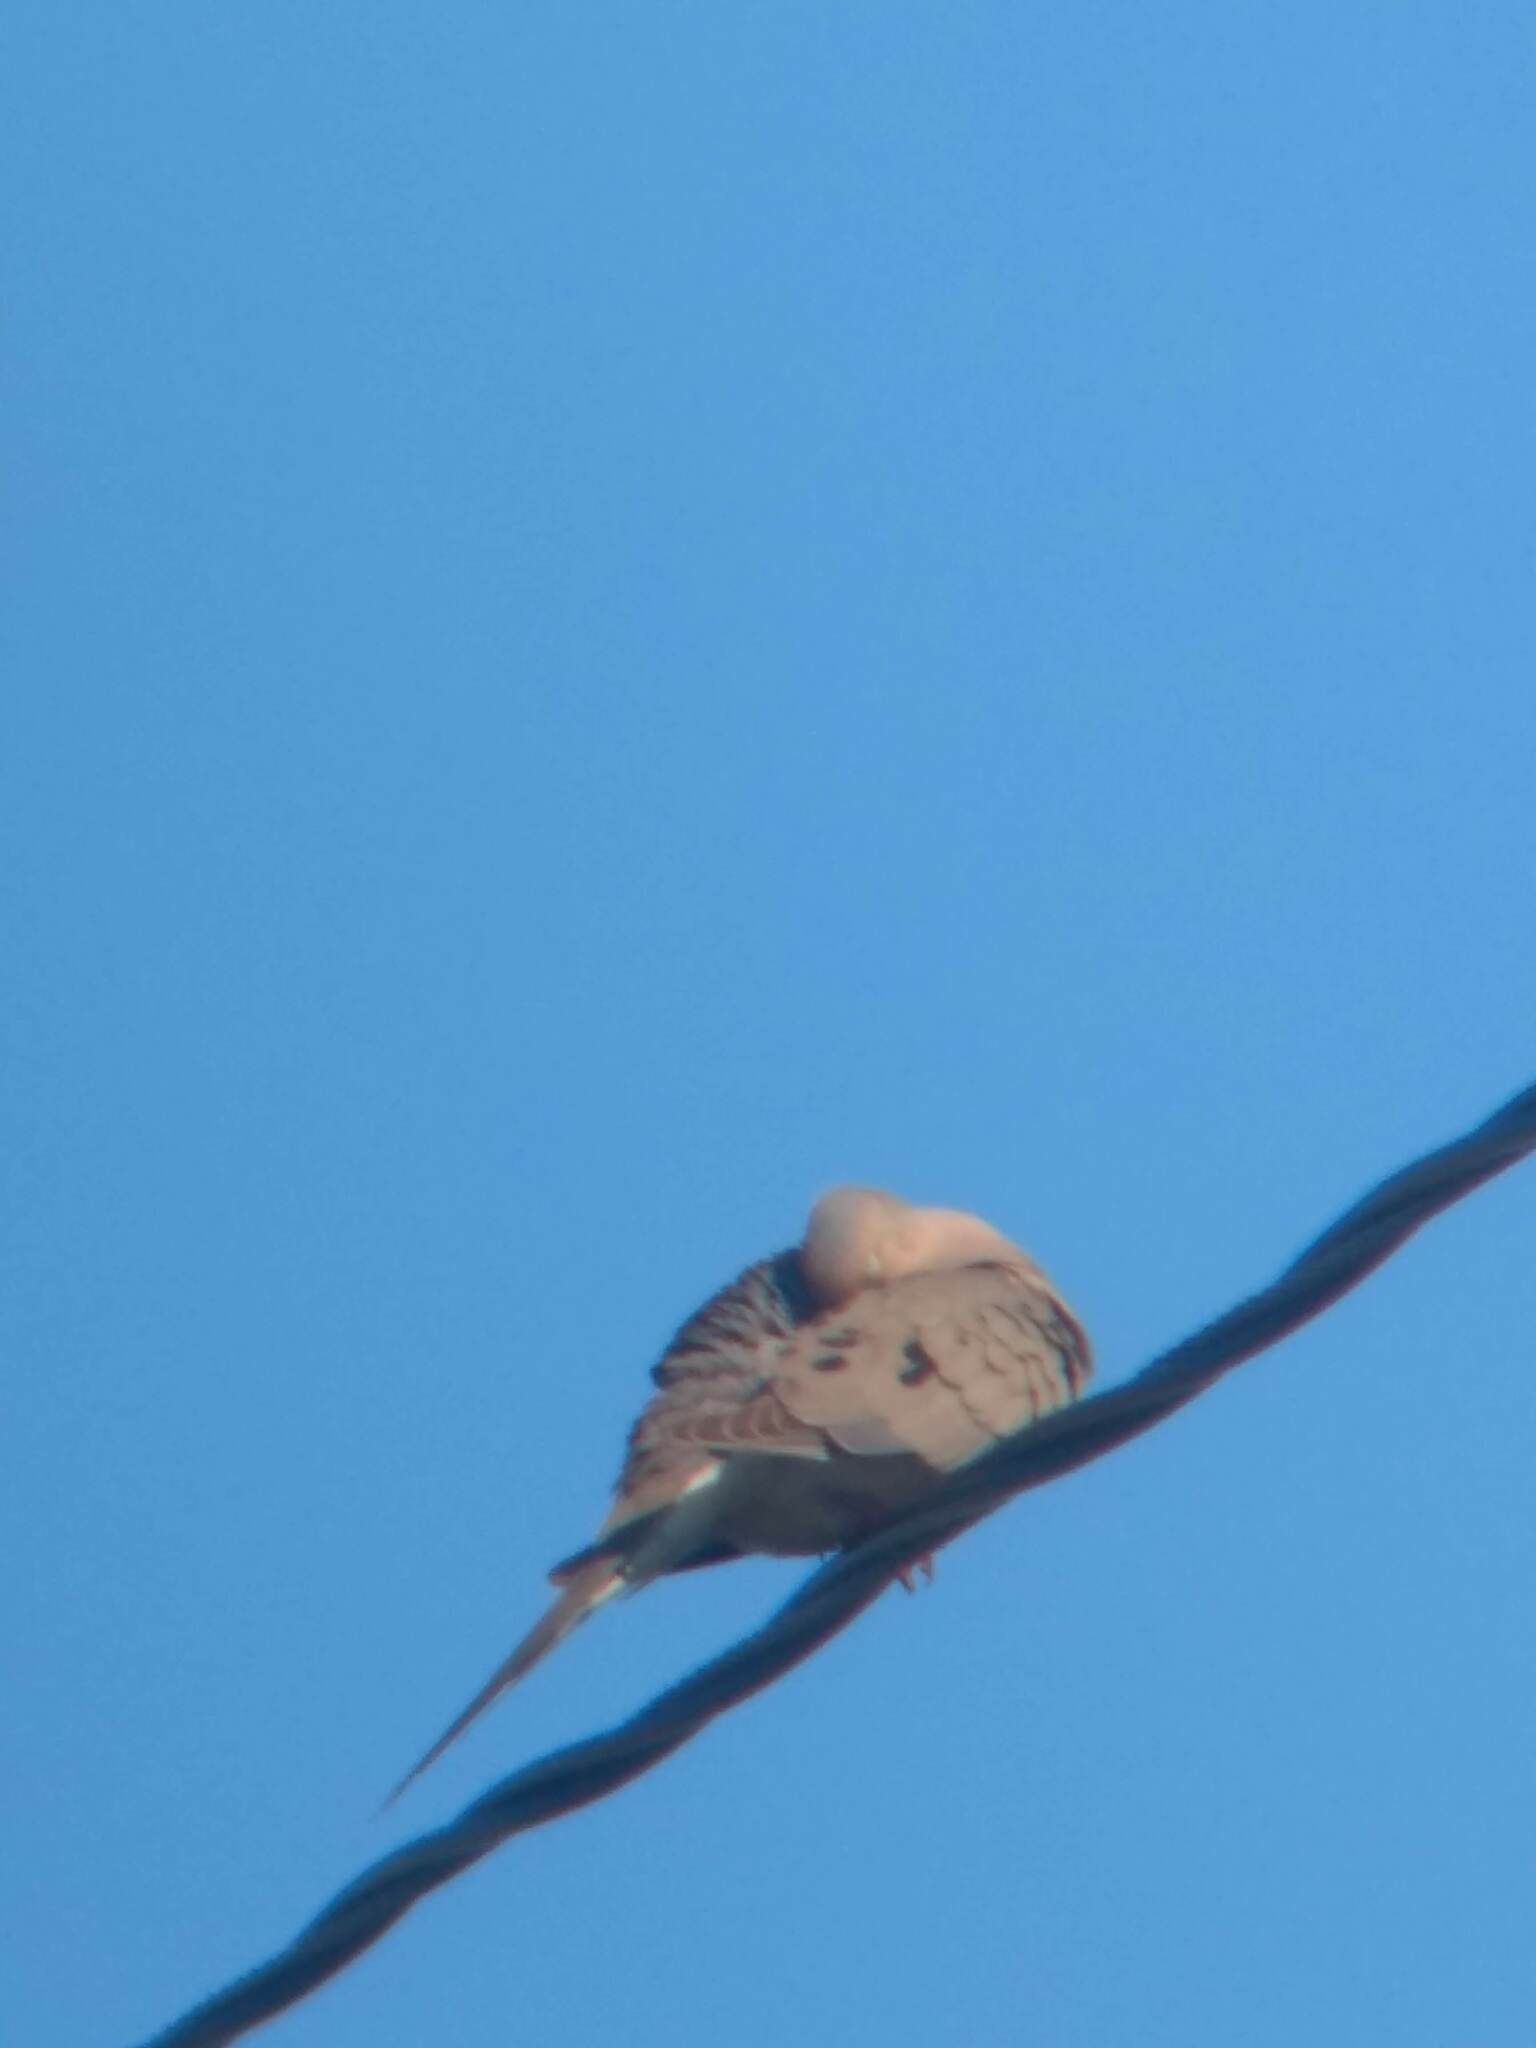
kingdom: Animalia
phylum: Chordata
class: Aves
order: Columbiformes
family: Columbidae
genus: Zenaida
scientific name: Zenaida macroura
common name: Mourning dove
